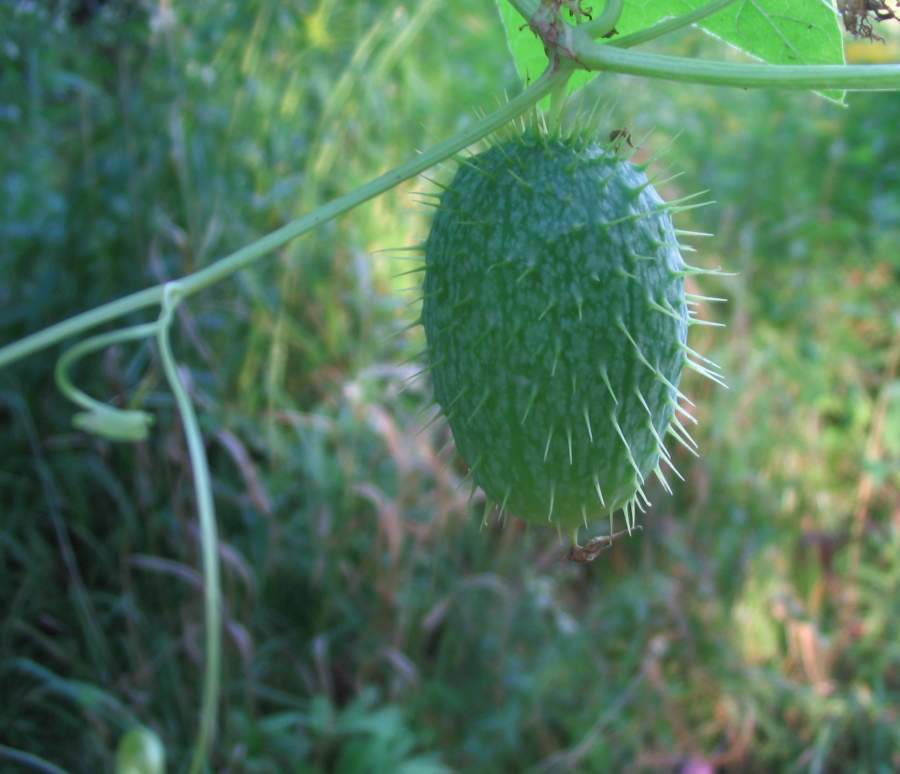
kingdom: Plantae
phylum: Tracheophyta
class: Magnoliopsida
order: Cucurbitales
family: Cucurbitaceae
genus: Echinocystis
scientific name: Echinocystis lobata
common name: Wild cucumber
